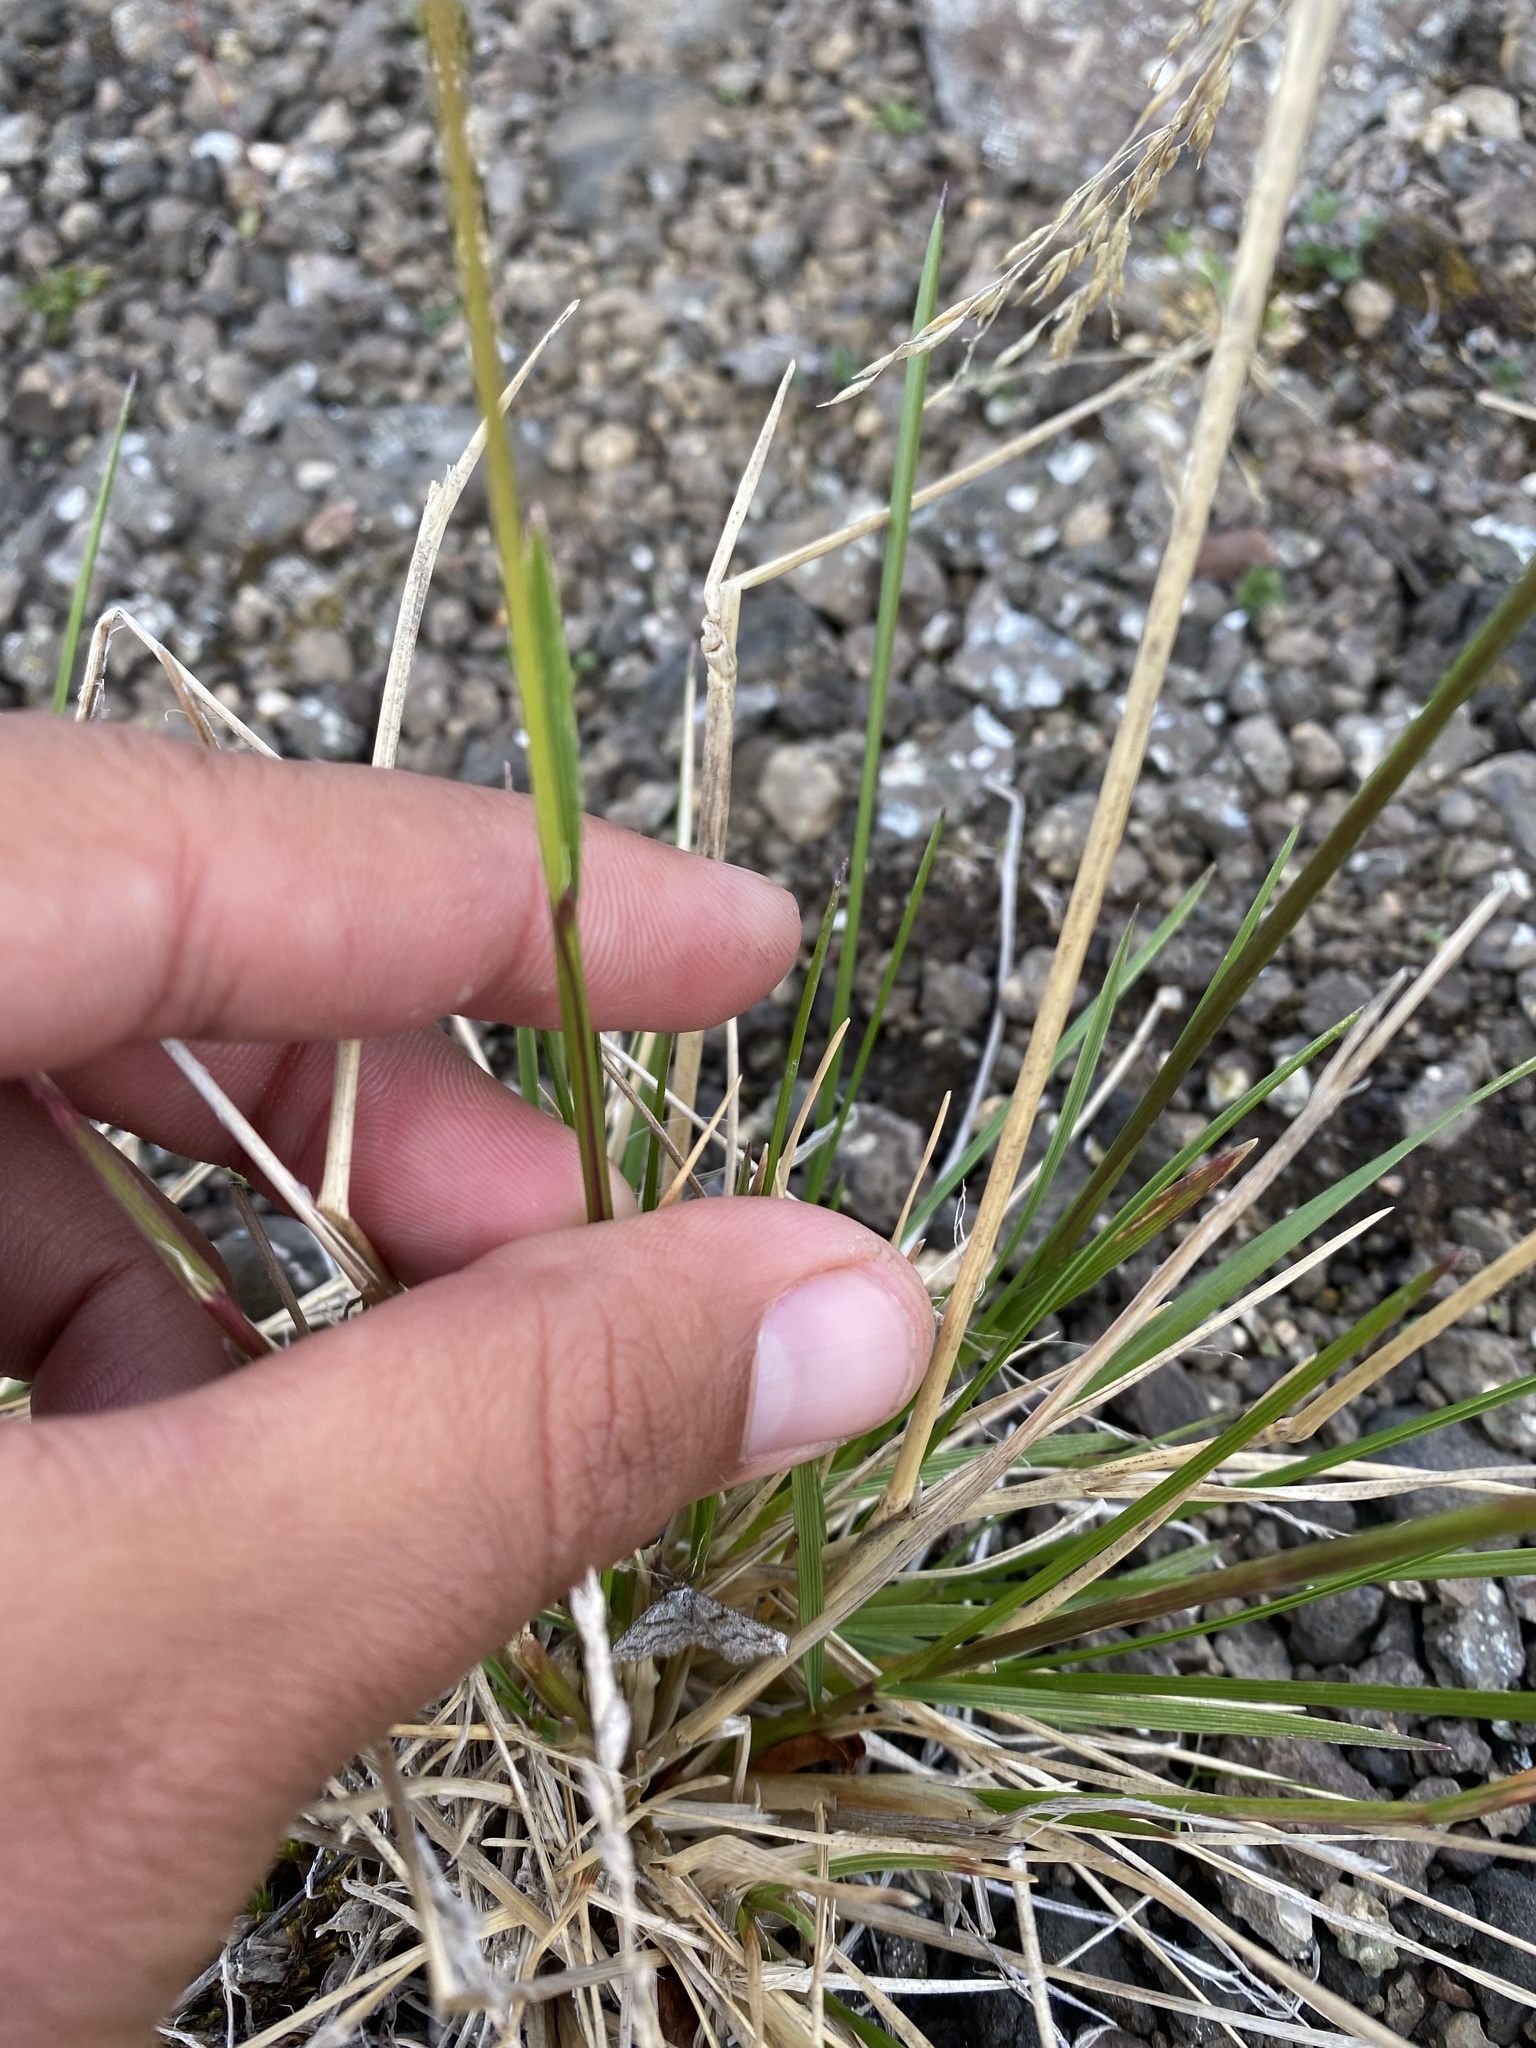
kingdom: Plantae
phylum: Tracheophyta
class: Liliopsida
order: Poales
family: Poaceae
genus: Deschampsia
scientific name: Deschampsia cespitosa
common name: Tufted hair-grass
